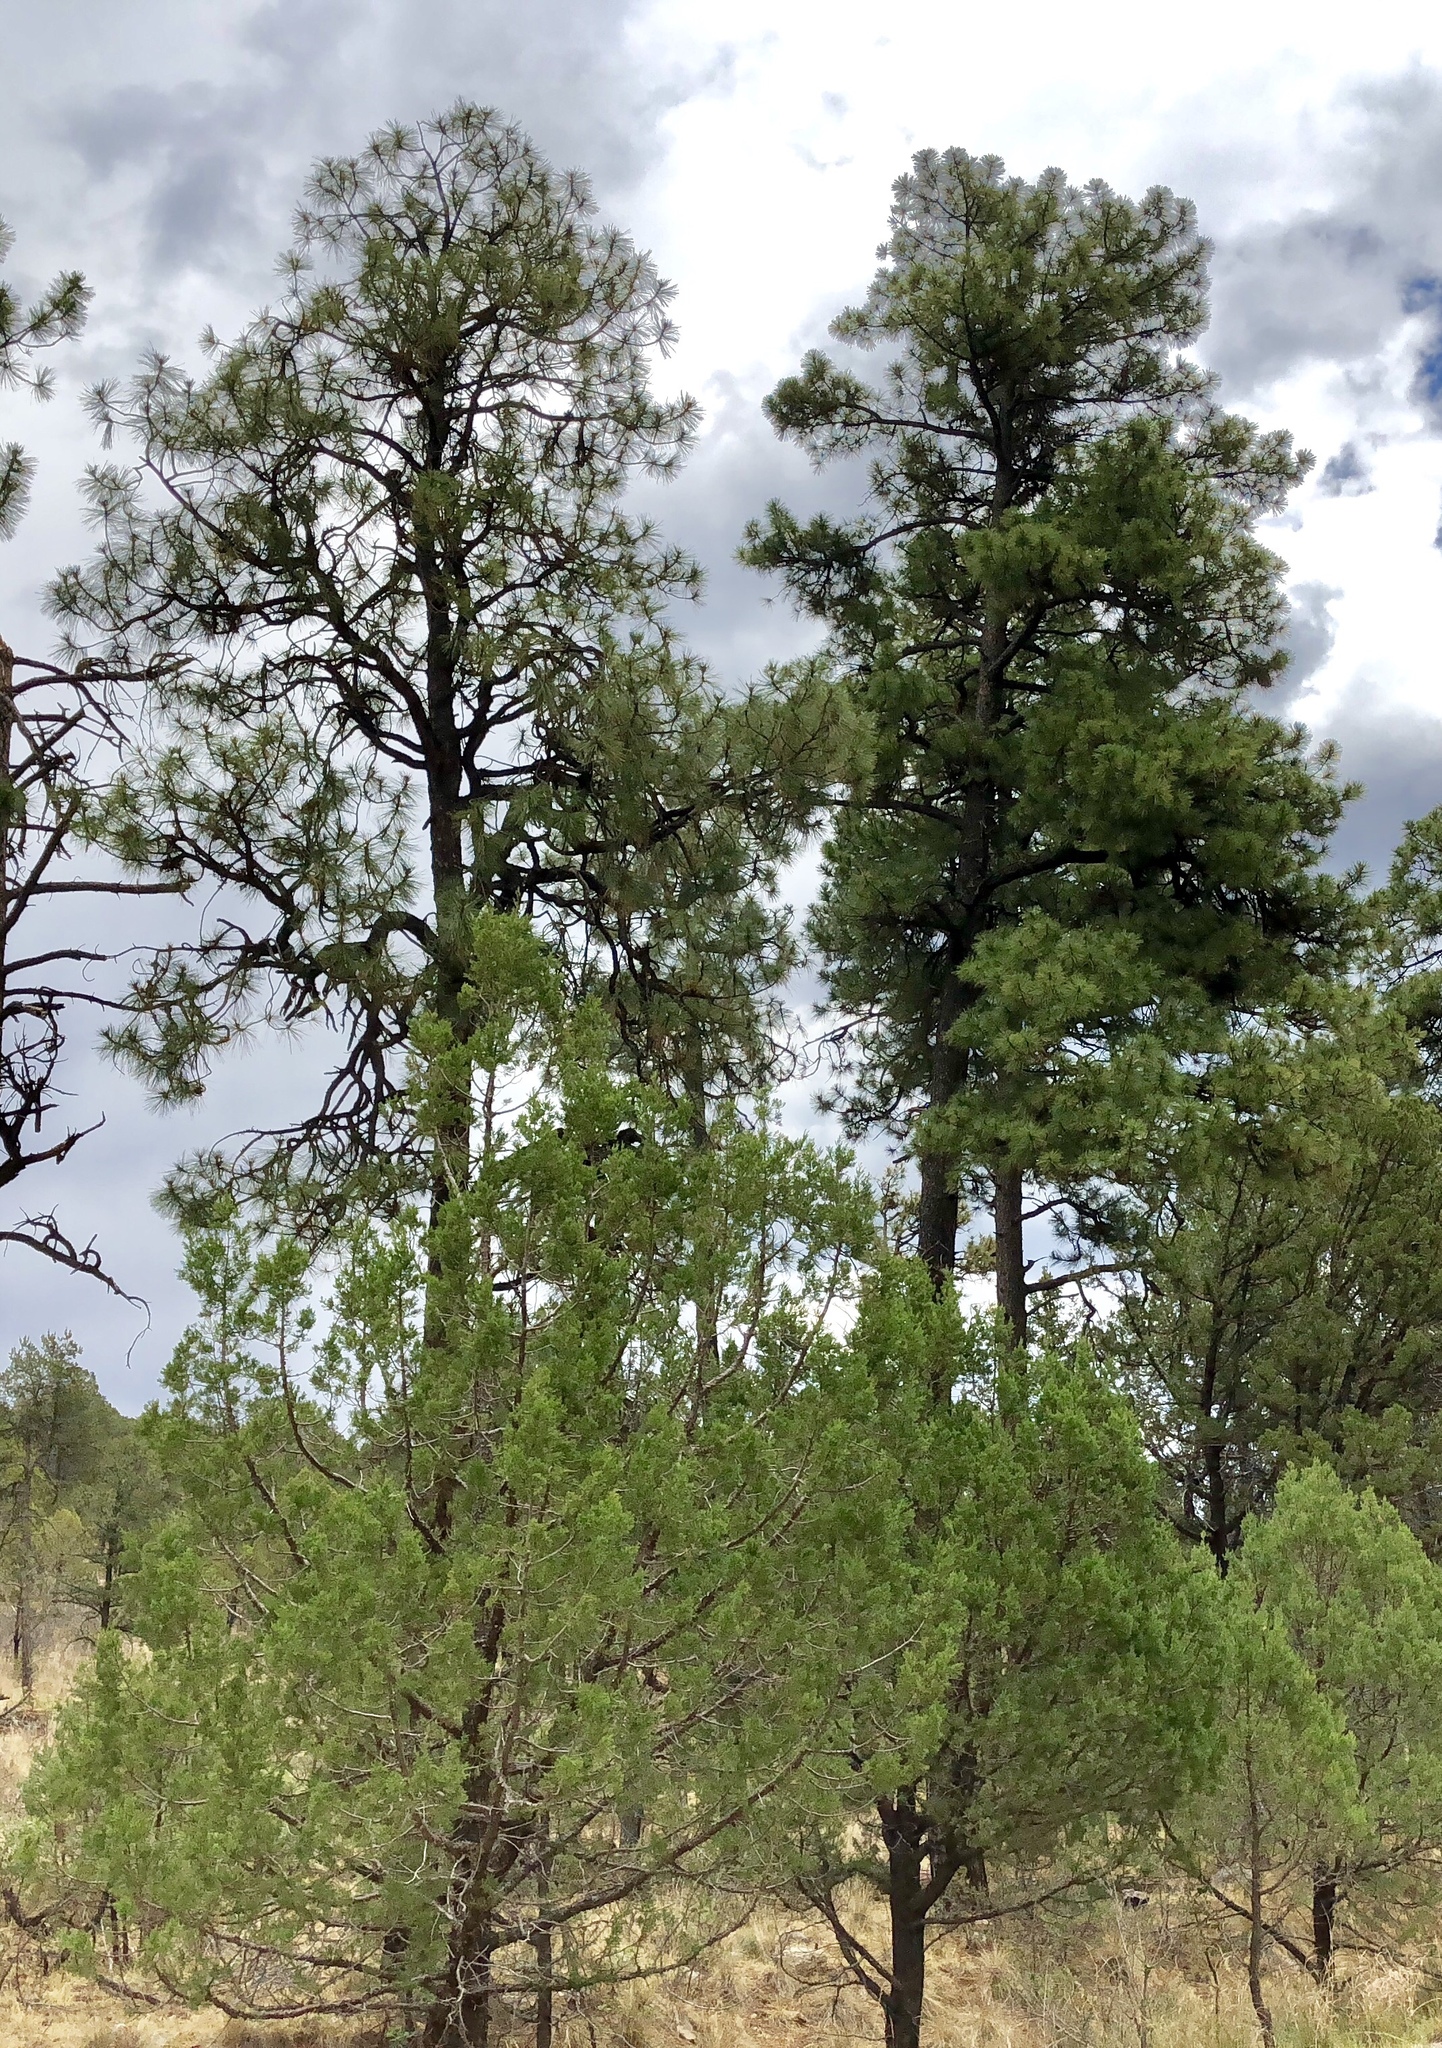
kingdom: Plantae
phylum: Tracheophyta
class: Pinopsida
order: Pinales
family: Pinaceae
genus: Pinus
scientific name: Pinus ponderosa
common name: Western yellow-pine
